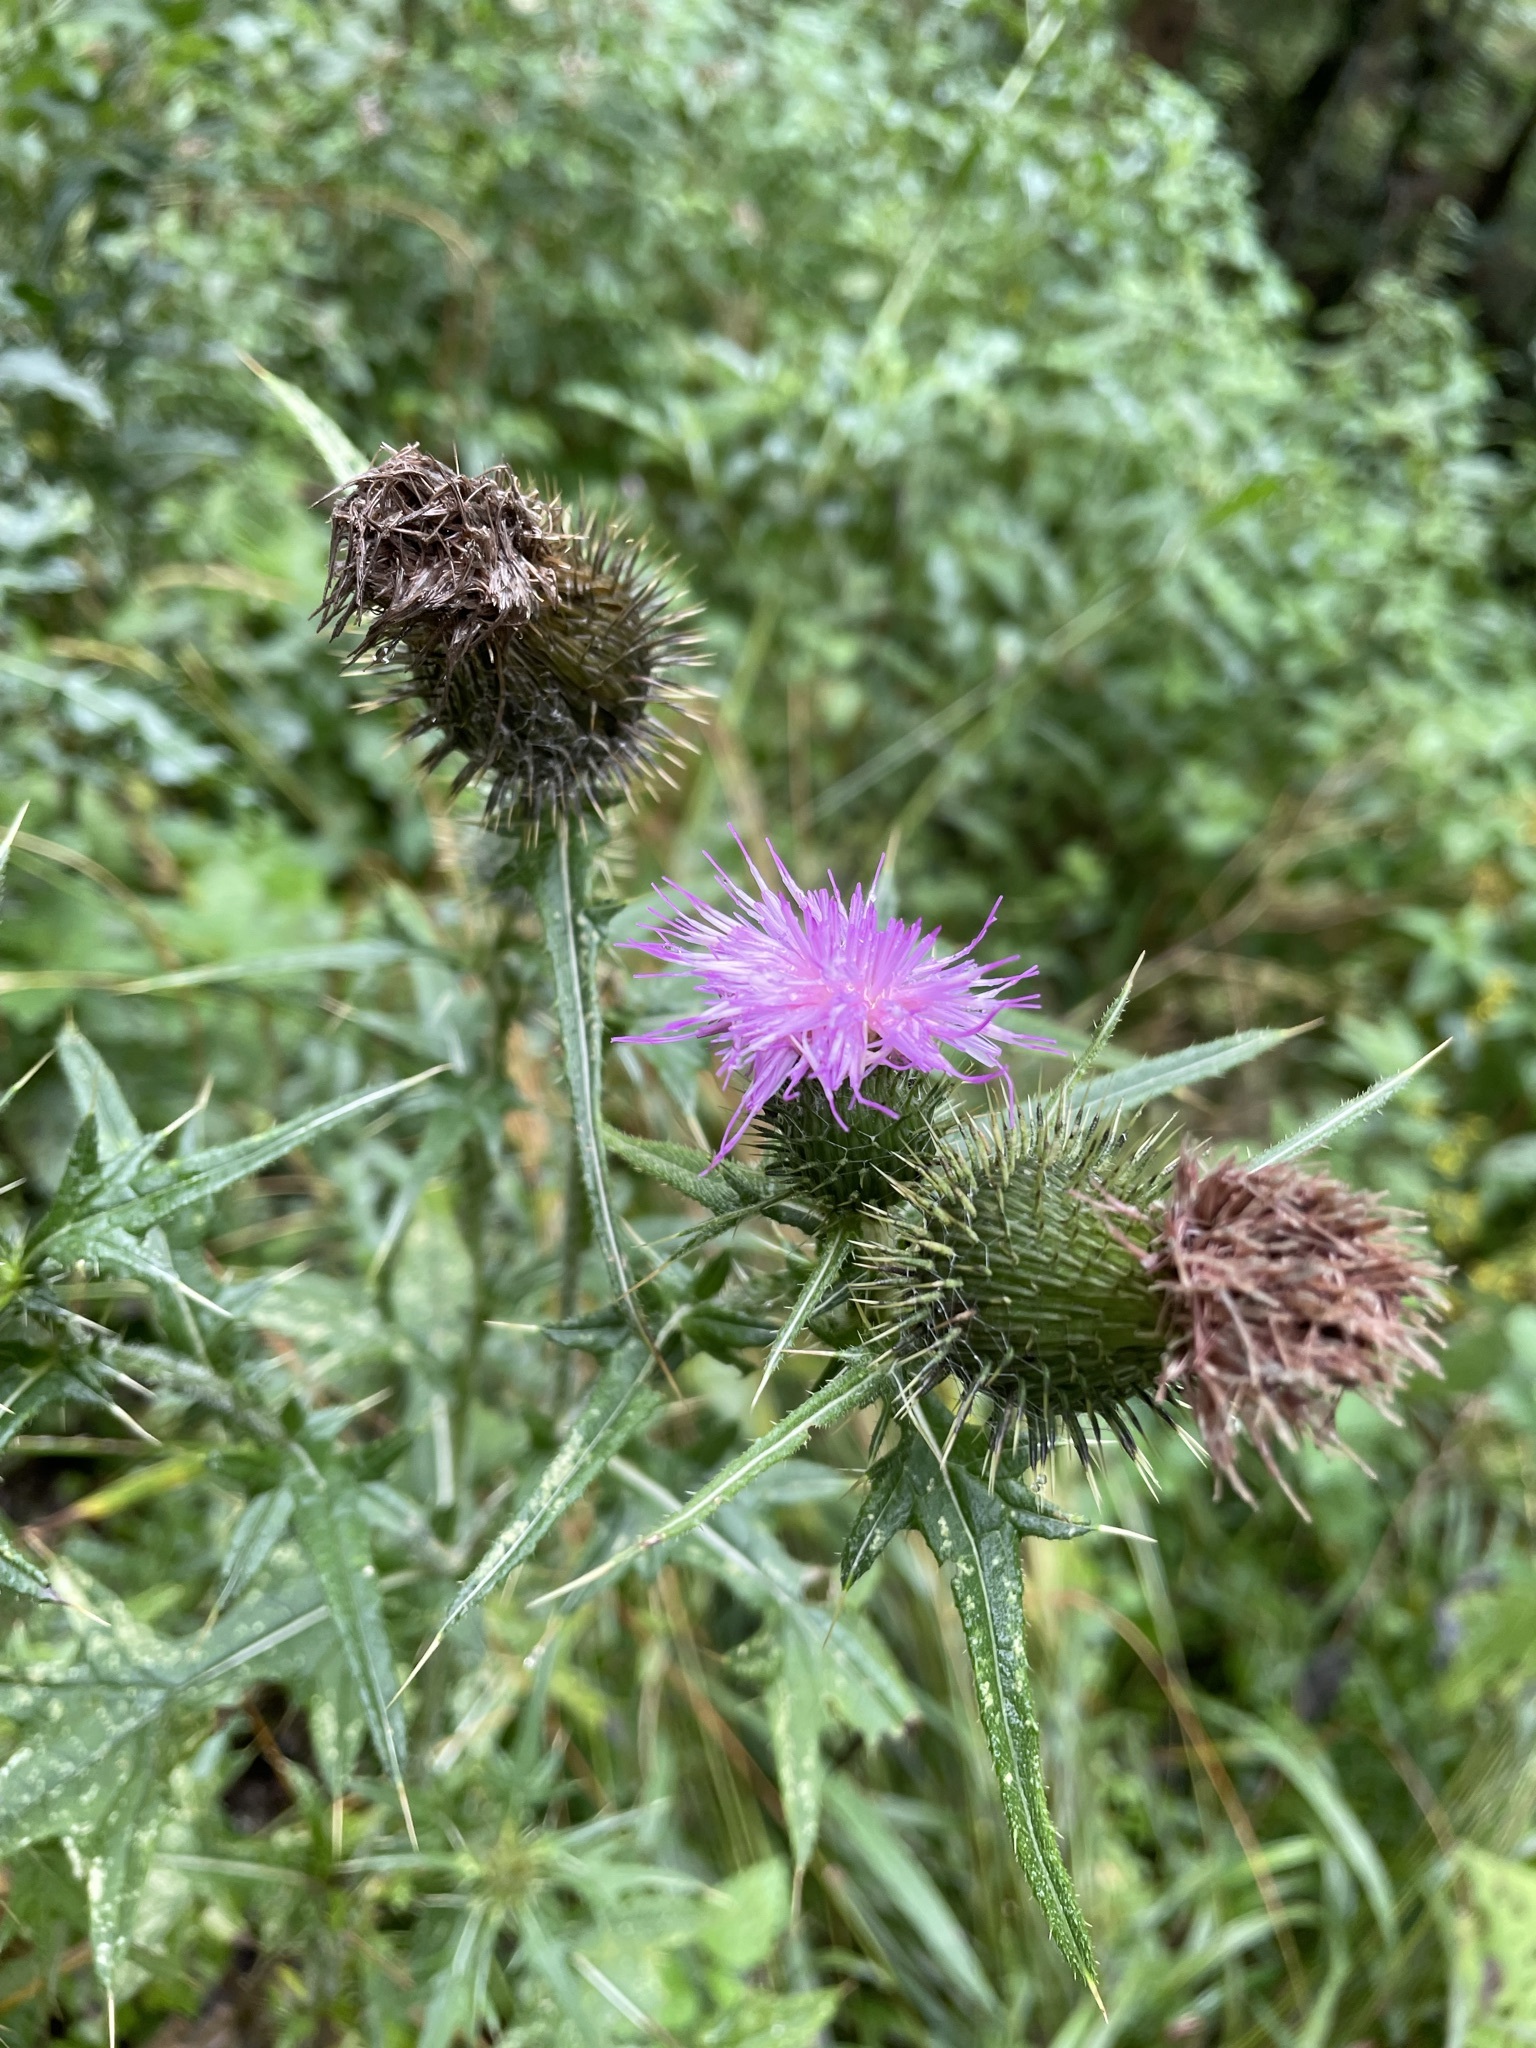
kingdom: Plantae
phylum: Tracheophyta
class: Magnoliopsida
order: Asterales
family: Asteraceae
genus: Cirsium
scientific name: Cirsium vulgare
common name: Bull thistle
